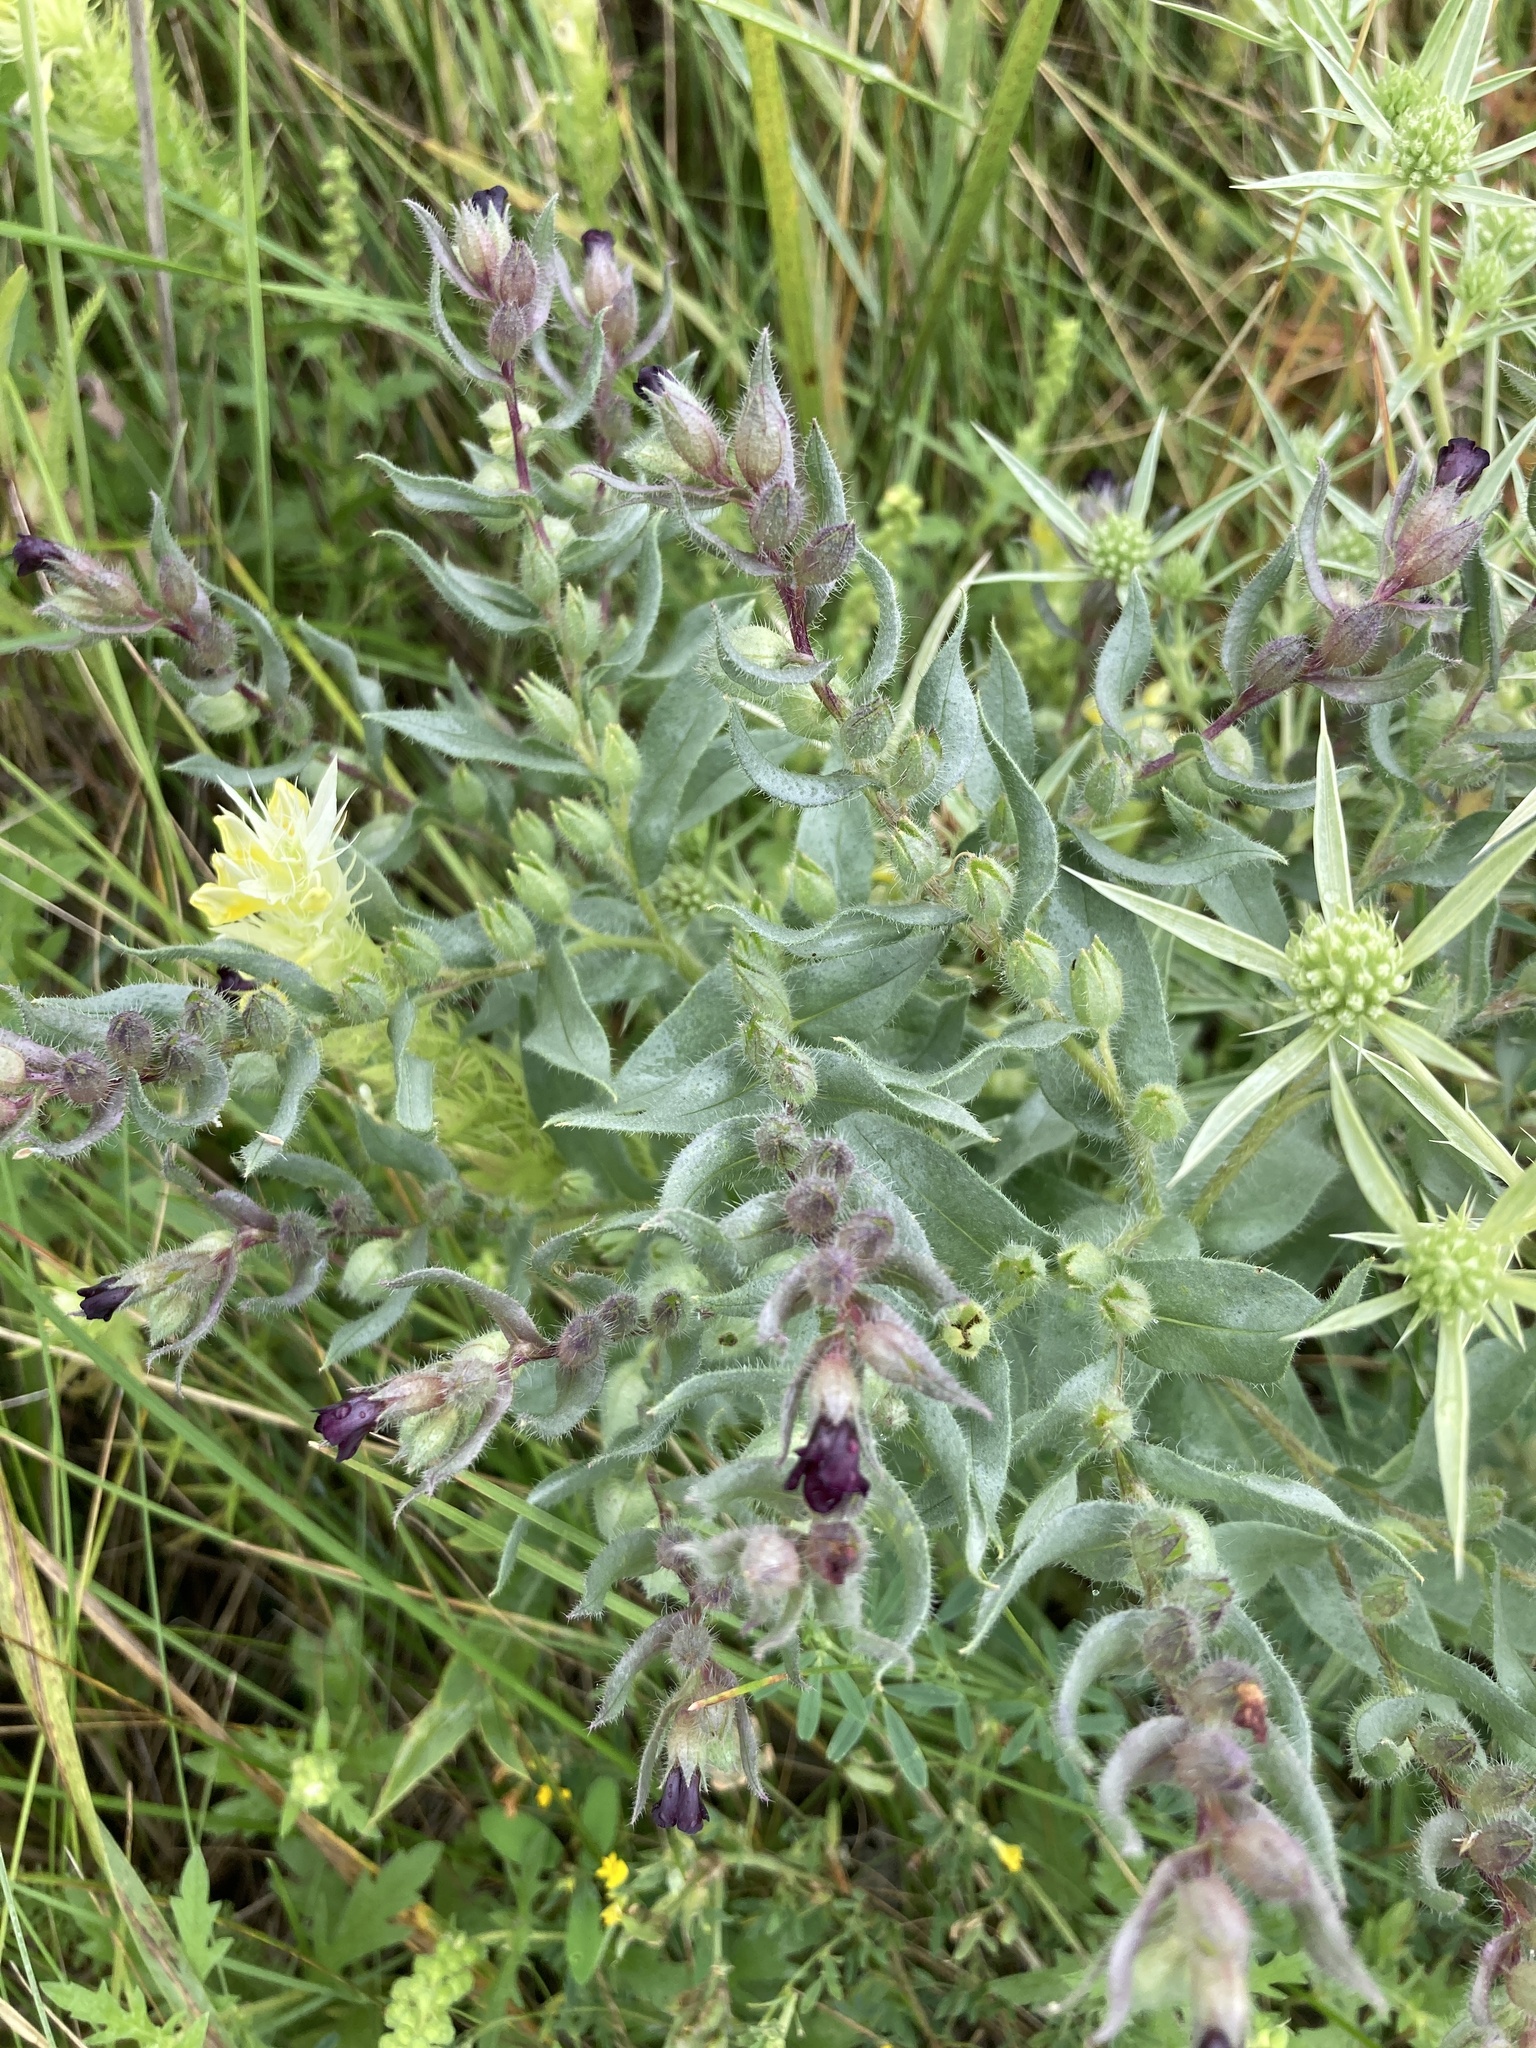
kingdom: Plantae
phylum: Tracheophyta
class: Magnoliopsida
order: Boraginales
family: Boraginaceae
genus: Nonea
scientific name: Nonea pulla
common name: Brown nonea
